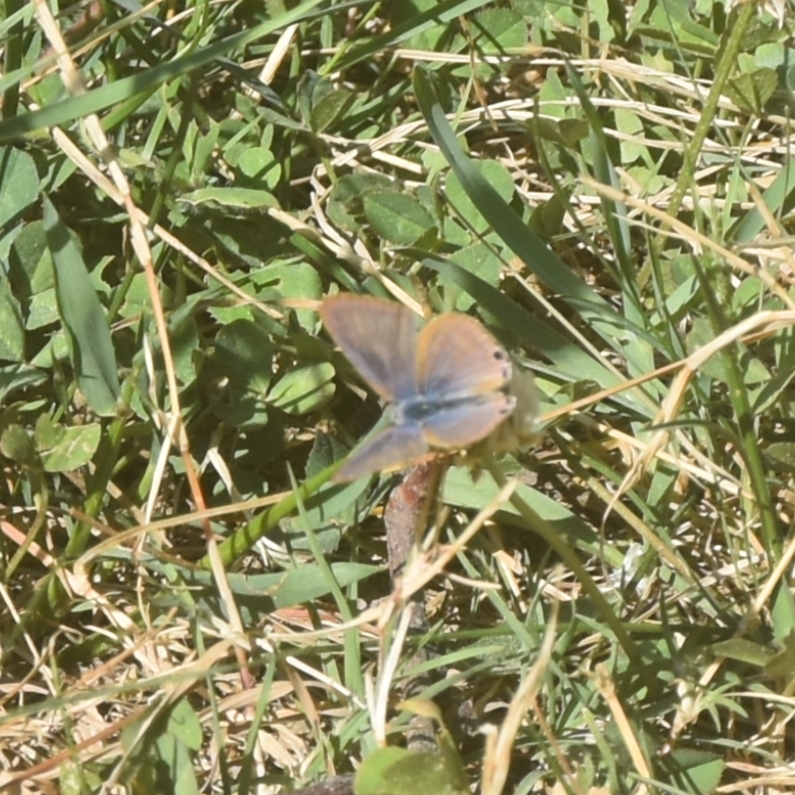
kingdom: Animalia
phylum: Arthropoda
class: Insecta
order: Lepidoptera
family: Lycaenidae
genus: Lampides
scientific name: Lampides boeticus
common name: Long-tailed blue
